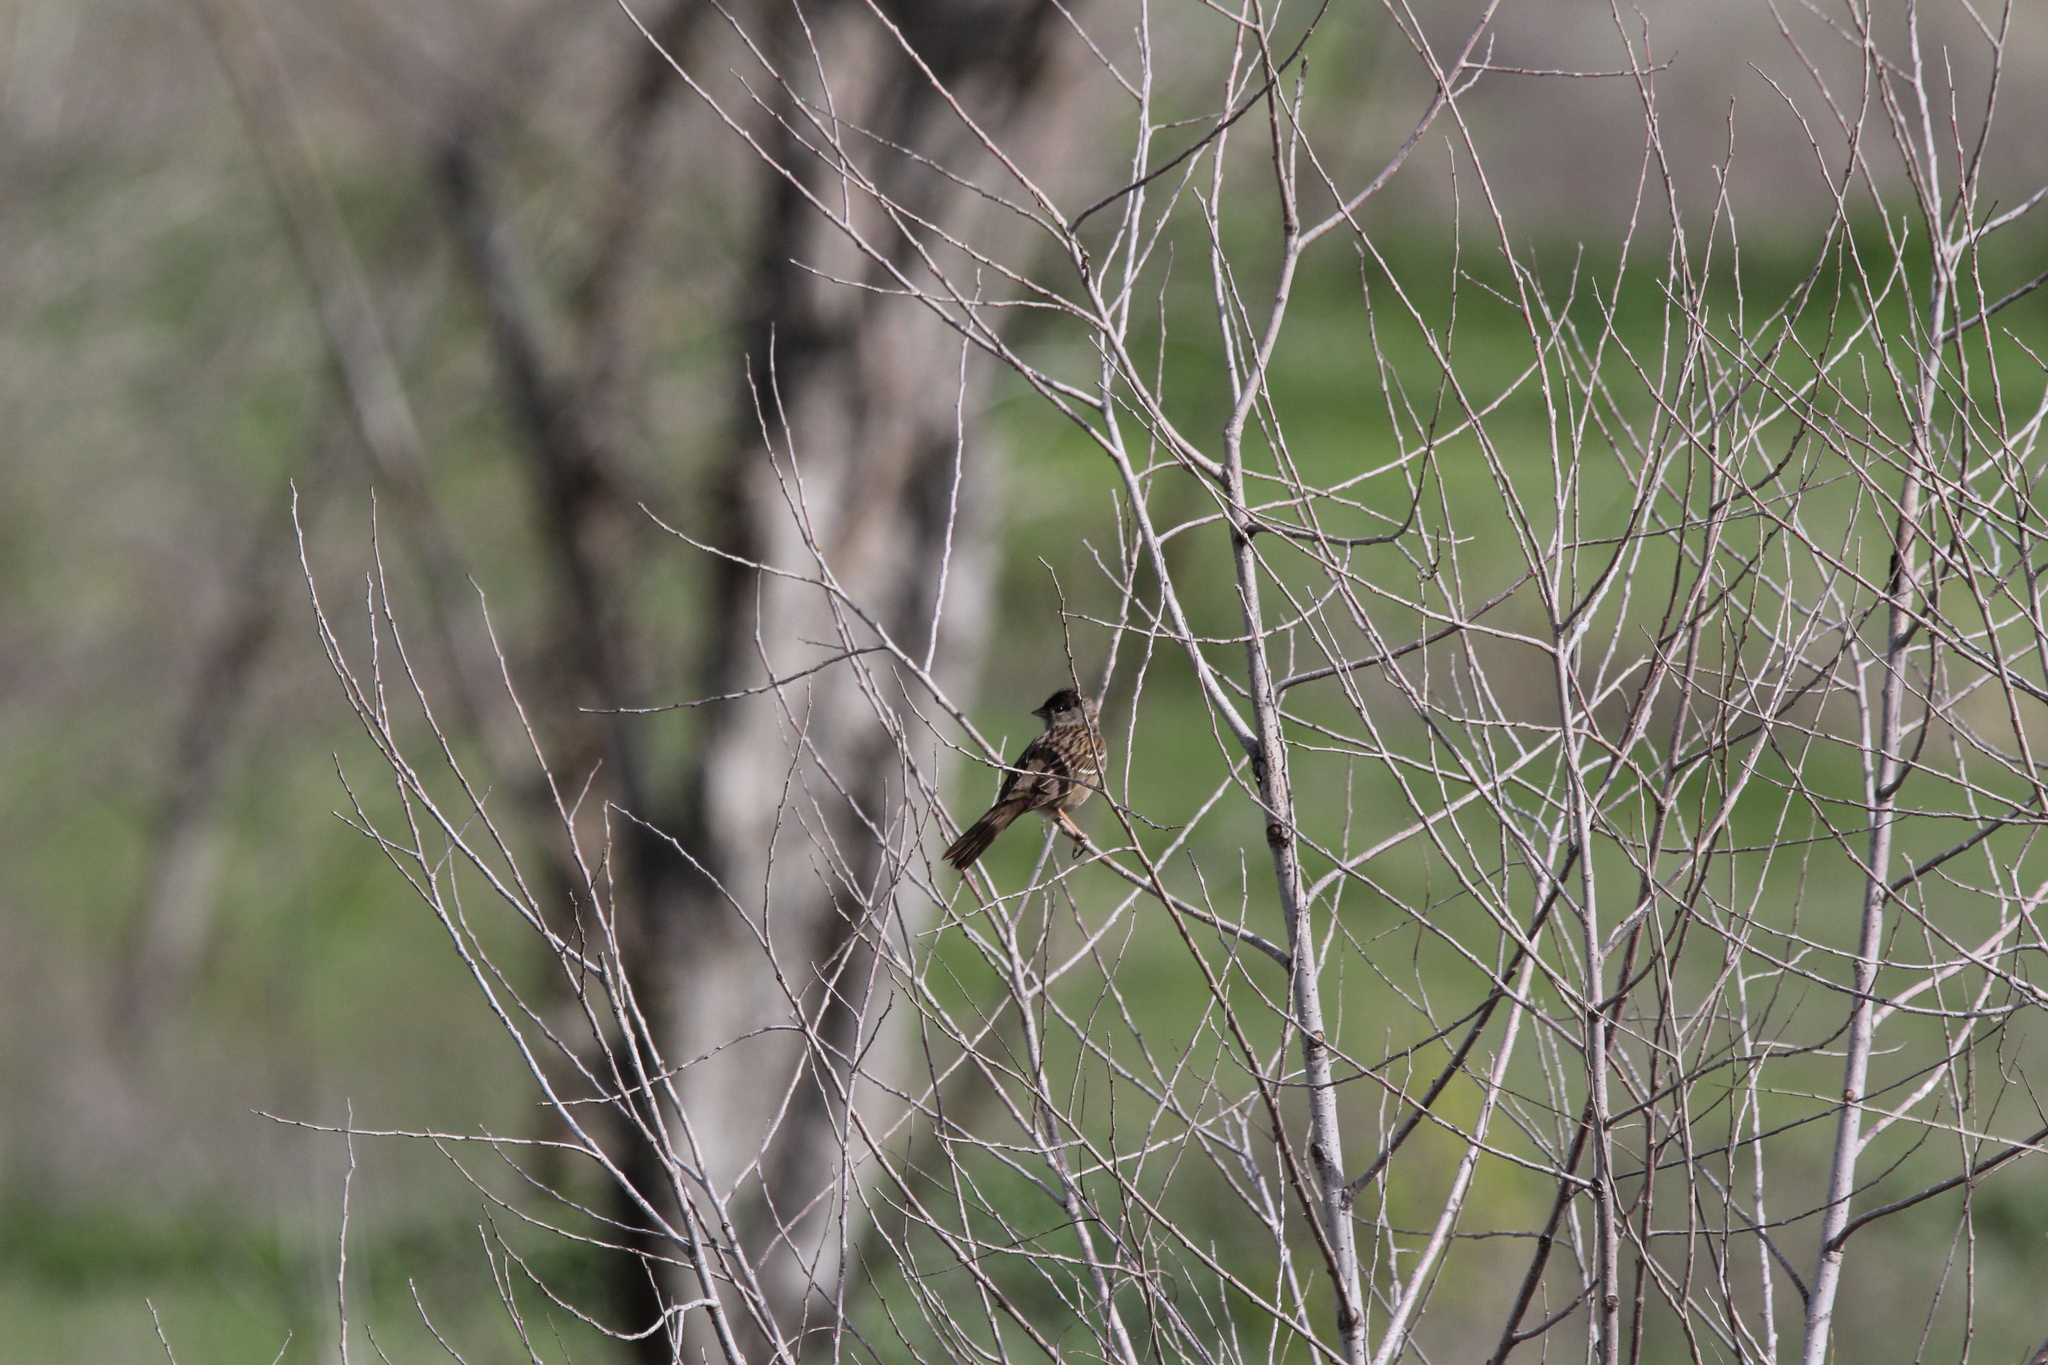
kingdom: Animalia
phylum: Chordata
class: Aves
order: Passeriformes
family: Passerellidae
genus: Zonotrichia
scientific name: Zonotrichia atricapilla
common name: Golden-crowned sparrow
